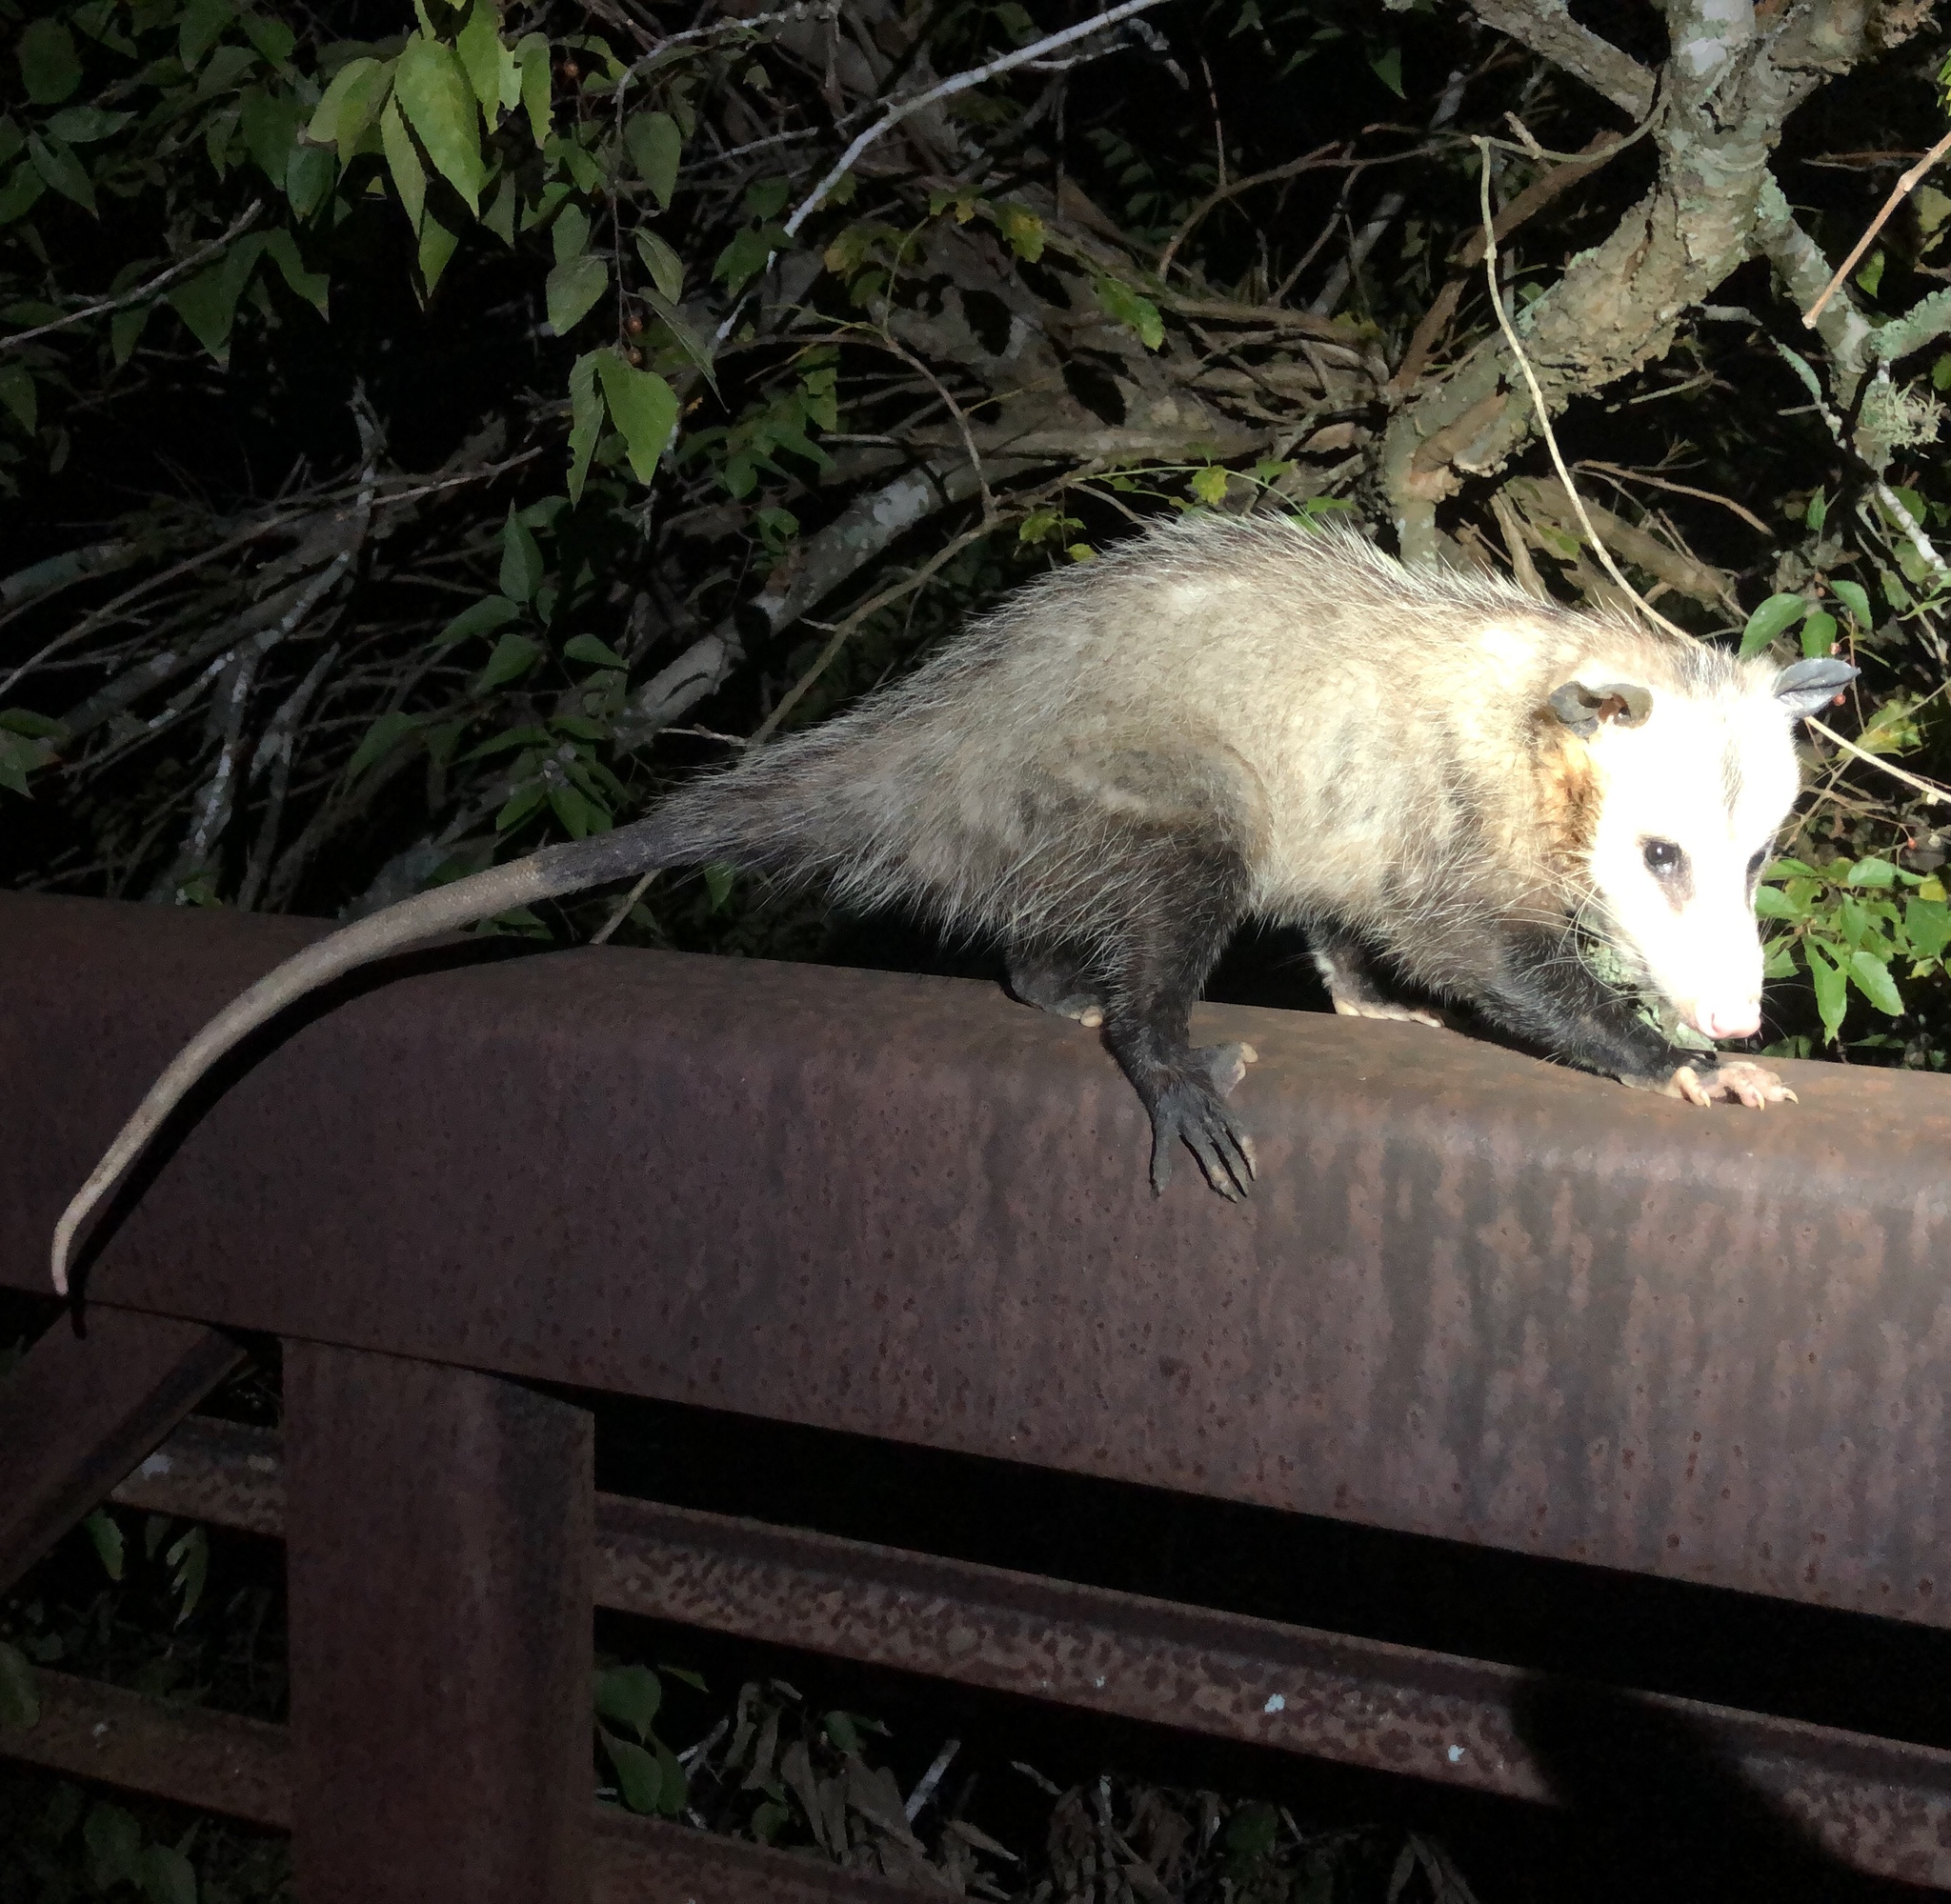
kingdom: Animalia
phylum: Chordata
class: Mammalia
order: Didelphimorphia
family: Didelphidae
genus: Didelphis
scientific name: Didelphis virginiana
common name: Virginia opossum
